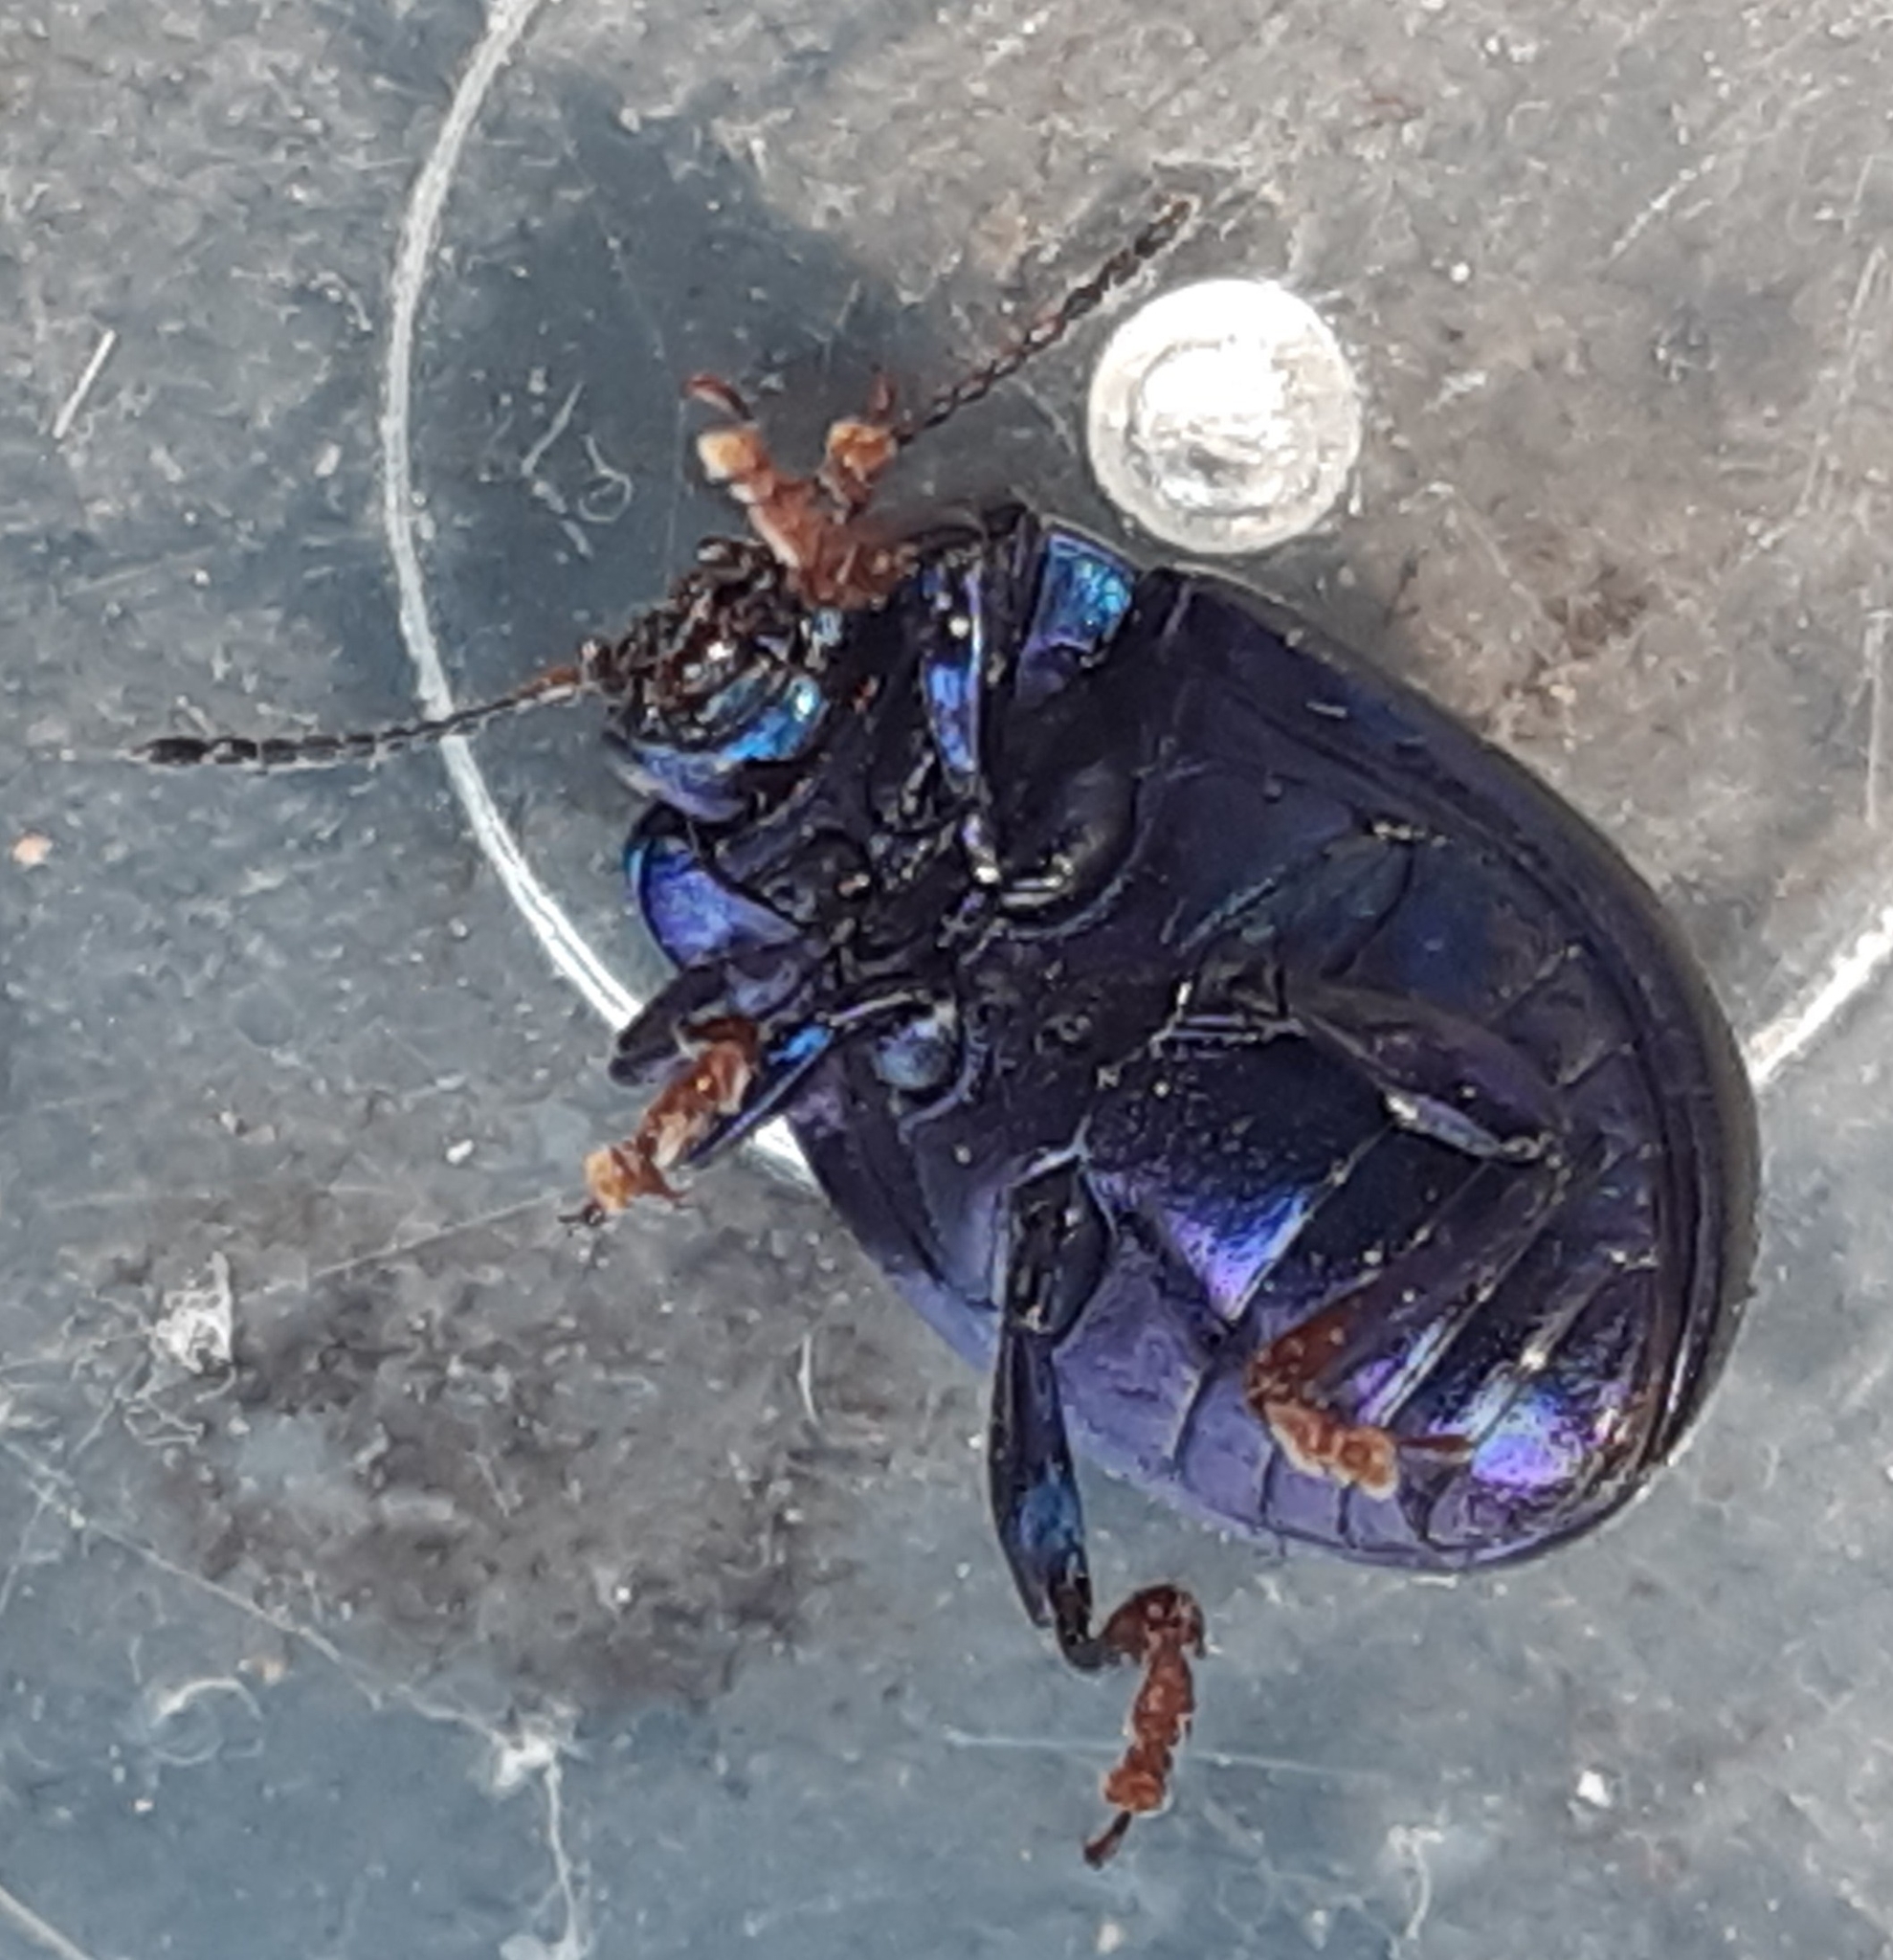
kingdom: Animalia
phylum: Arthropoda
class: Insecta
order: Coleoptera
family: Chrysomelidae
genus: Chrysolina
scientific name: Chrysolina sturmi
